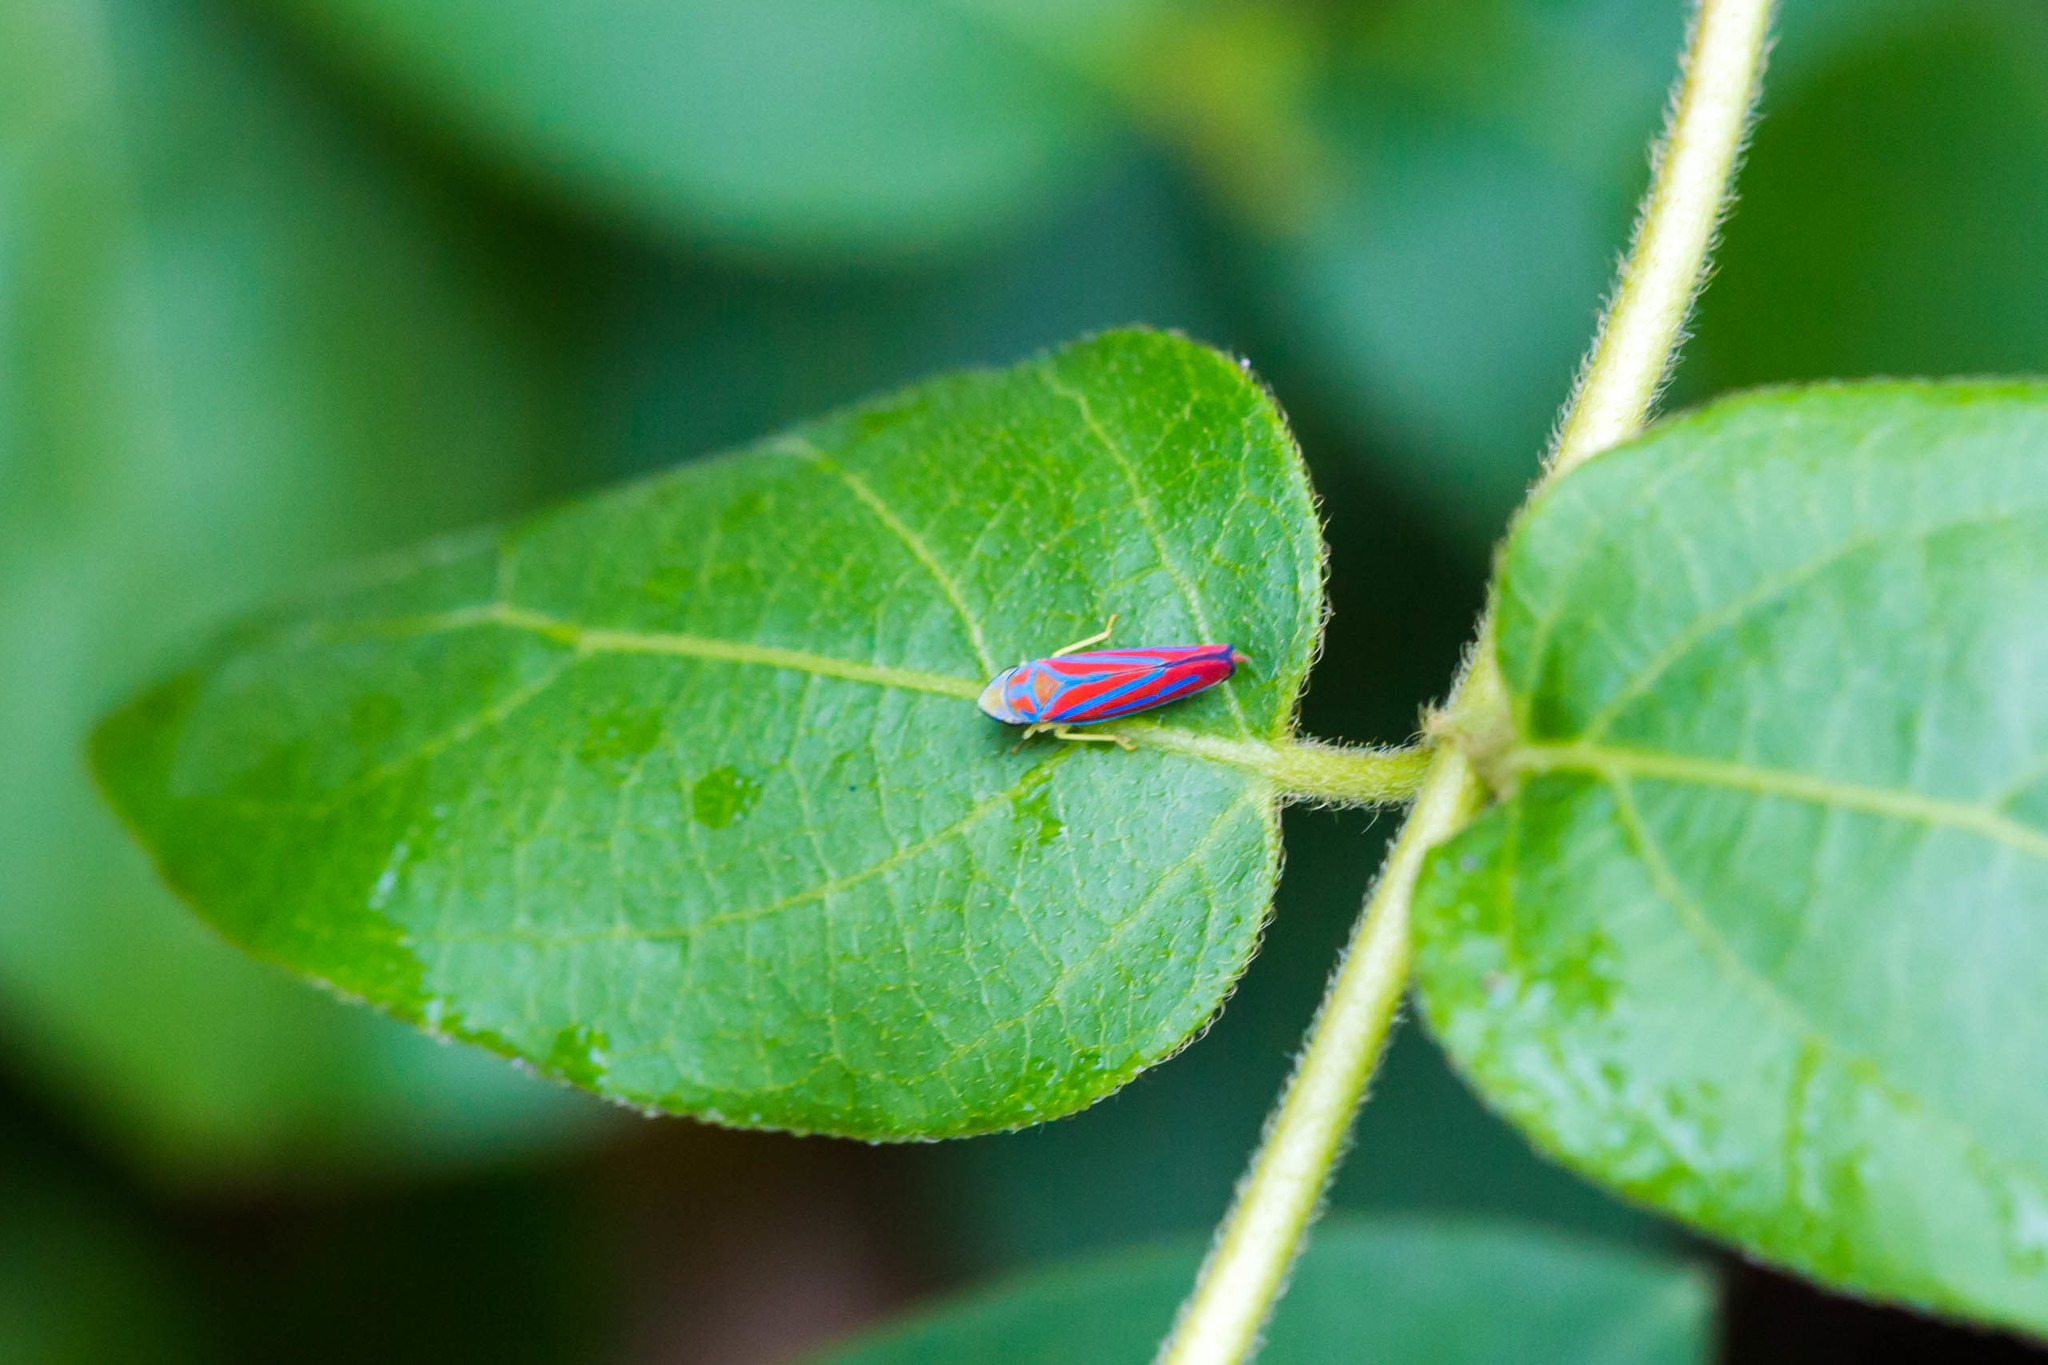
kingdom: Animalia
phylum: Arthropoda
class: Insecta
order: Hemiptera
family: Cicadellidae
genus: Graphocephala
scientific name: Graphocephala coccinea
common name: Candy-striped leafhopper
